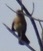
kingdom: Animalia
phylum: Chordata
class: Aves
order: Passeriformes
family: Passerellidae
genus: Pipilo
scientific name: Pipilo erythrophthalmus
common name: Eastern towhee
